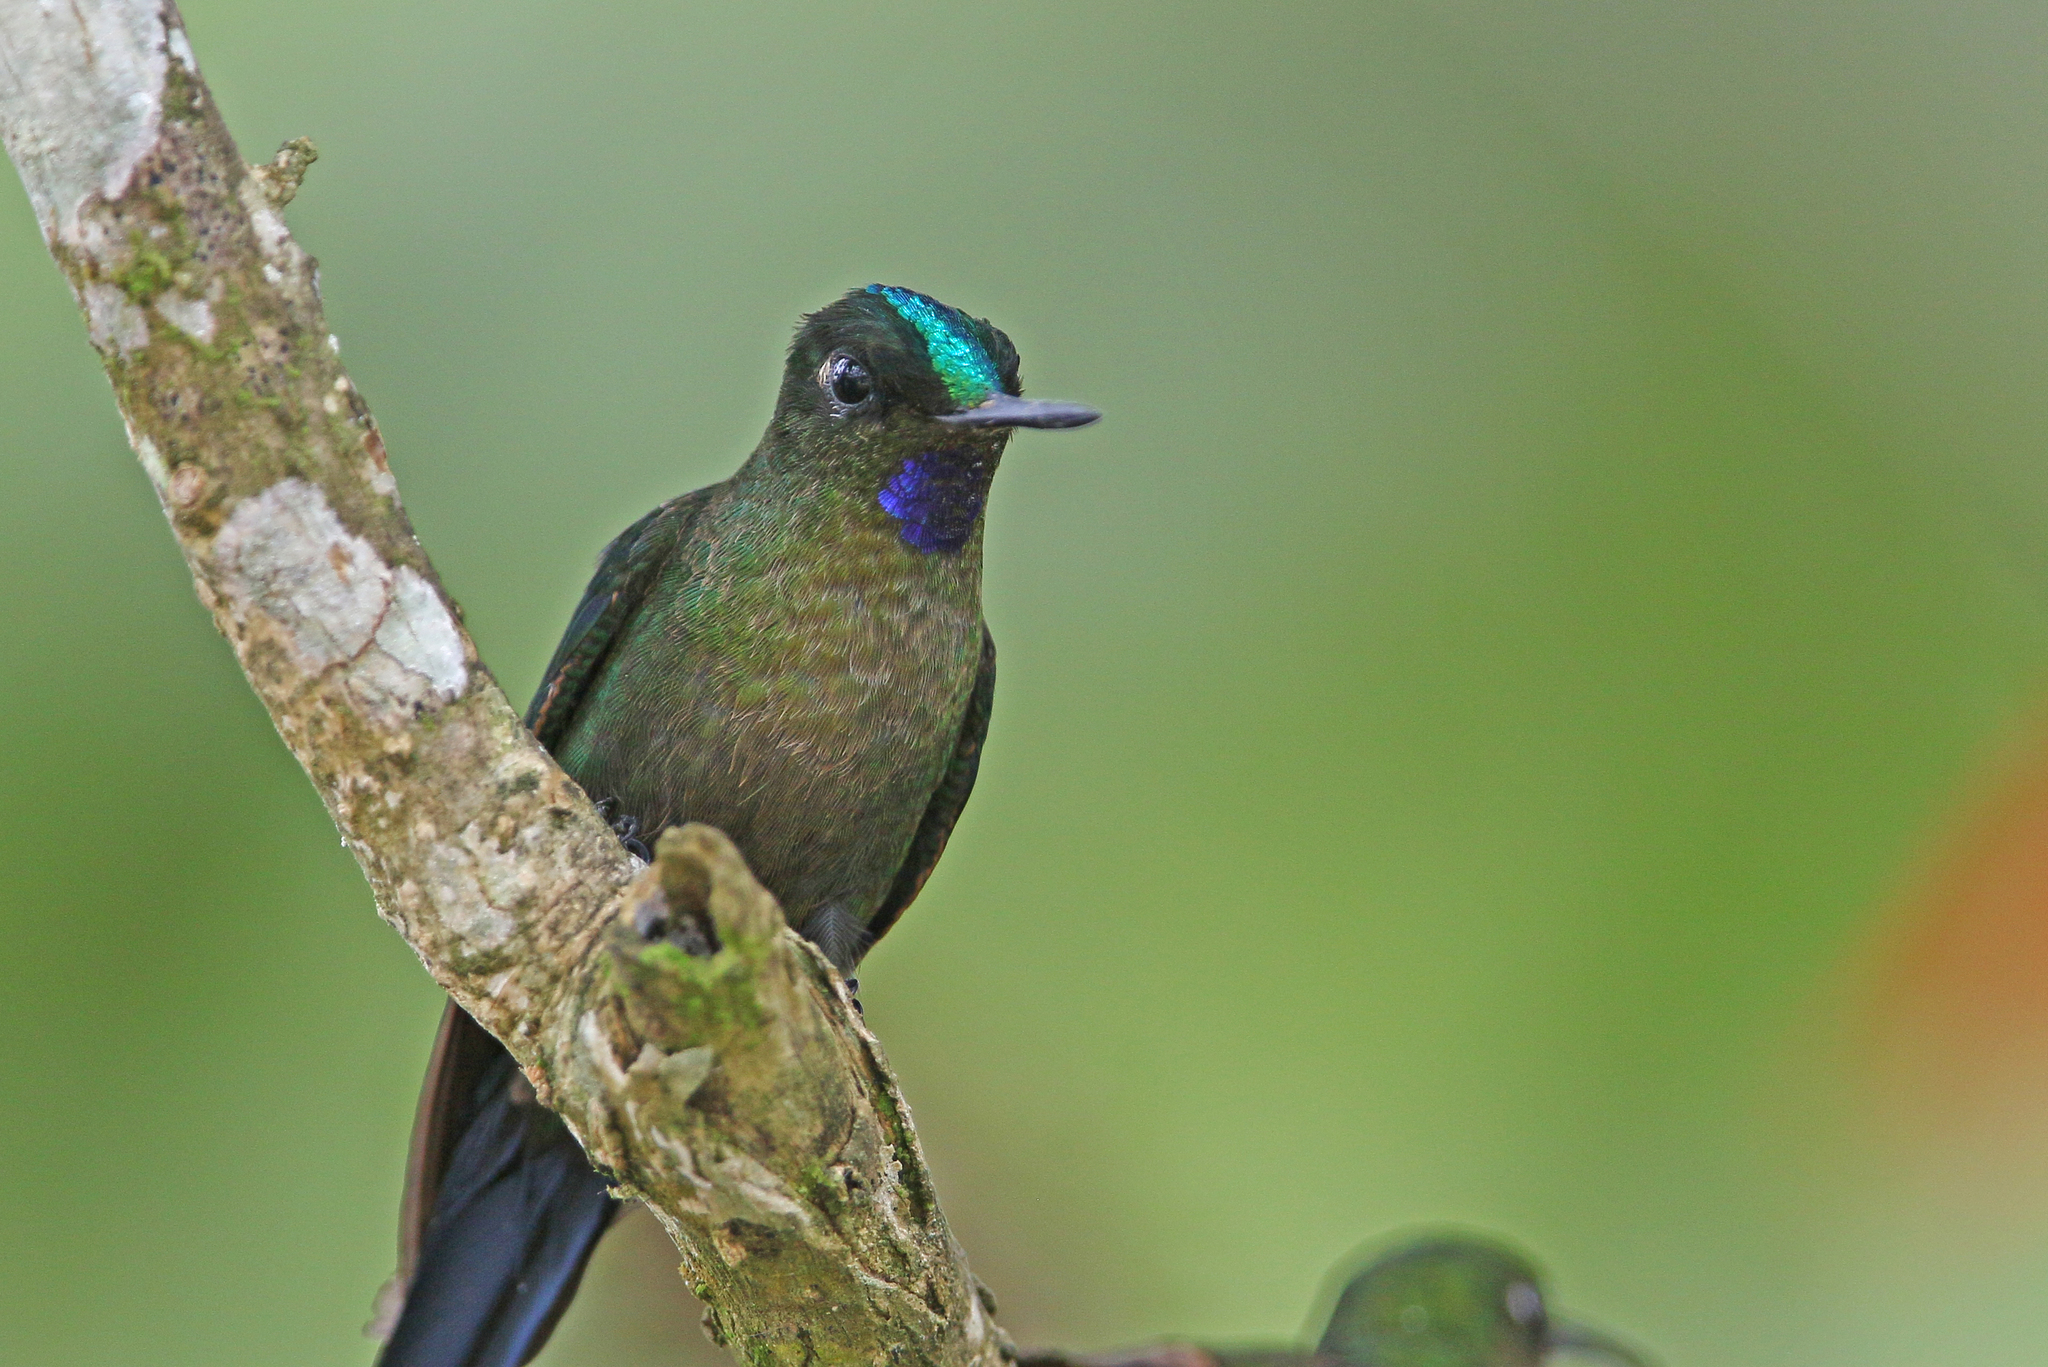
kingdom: Animalia
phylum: Chordata
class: Aves
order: Apodiformes
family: Trochilidae
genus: Aglaiocercus
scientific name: Aglaiocercus coelestis
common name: Violet-tailed sylph
